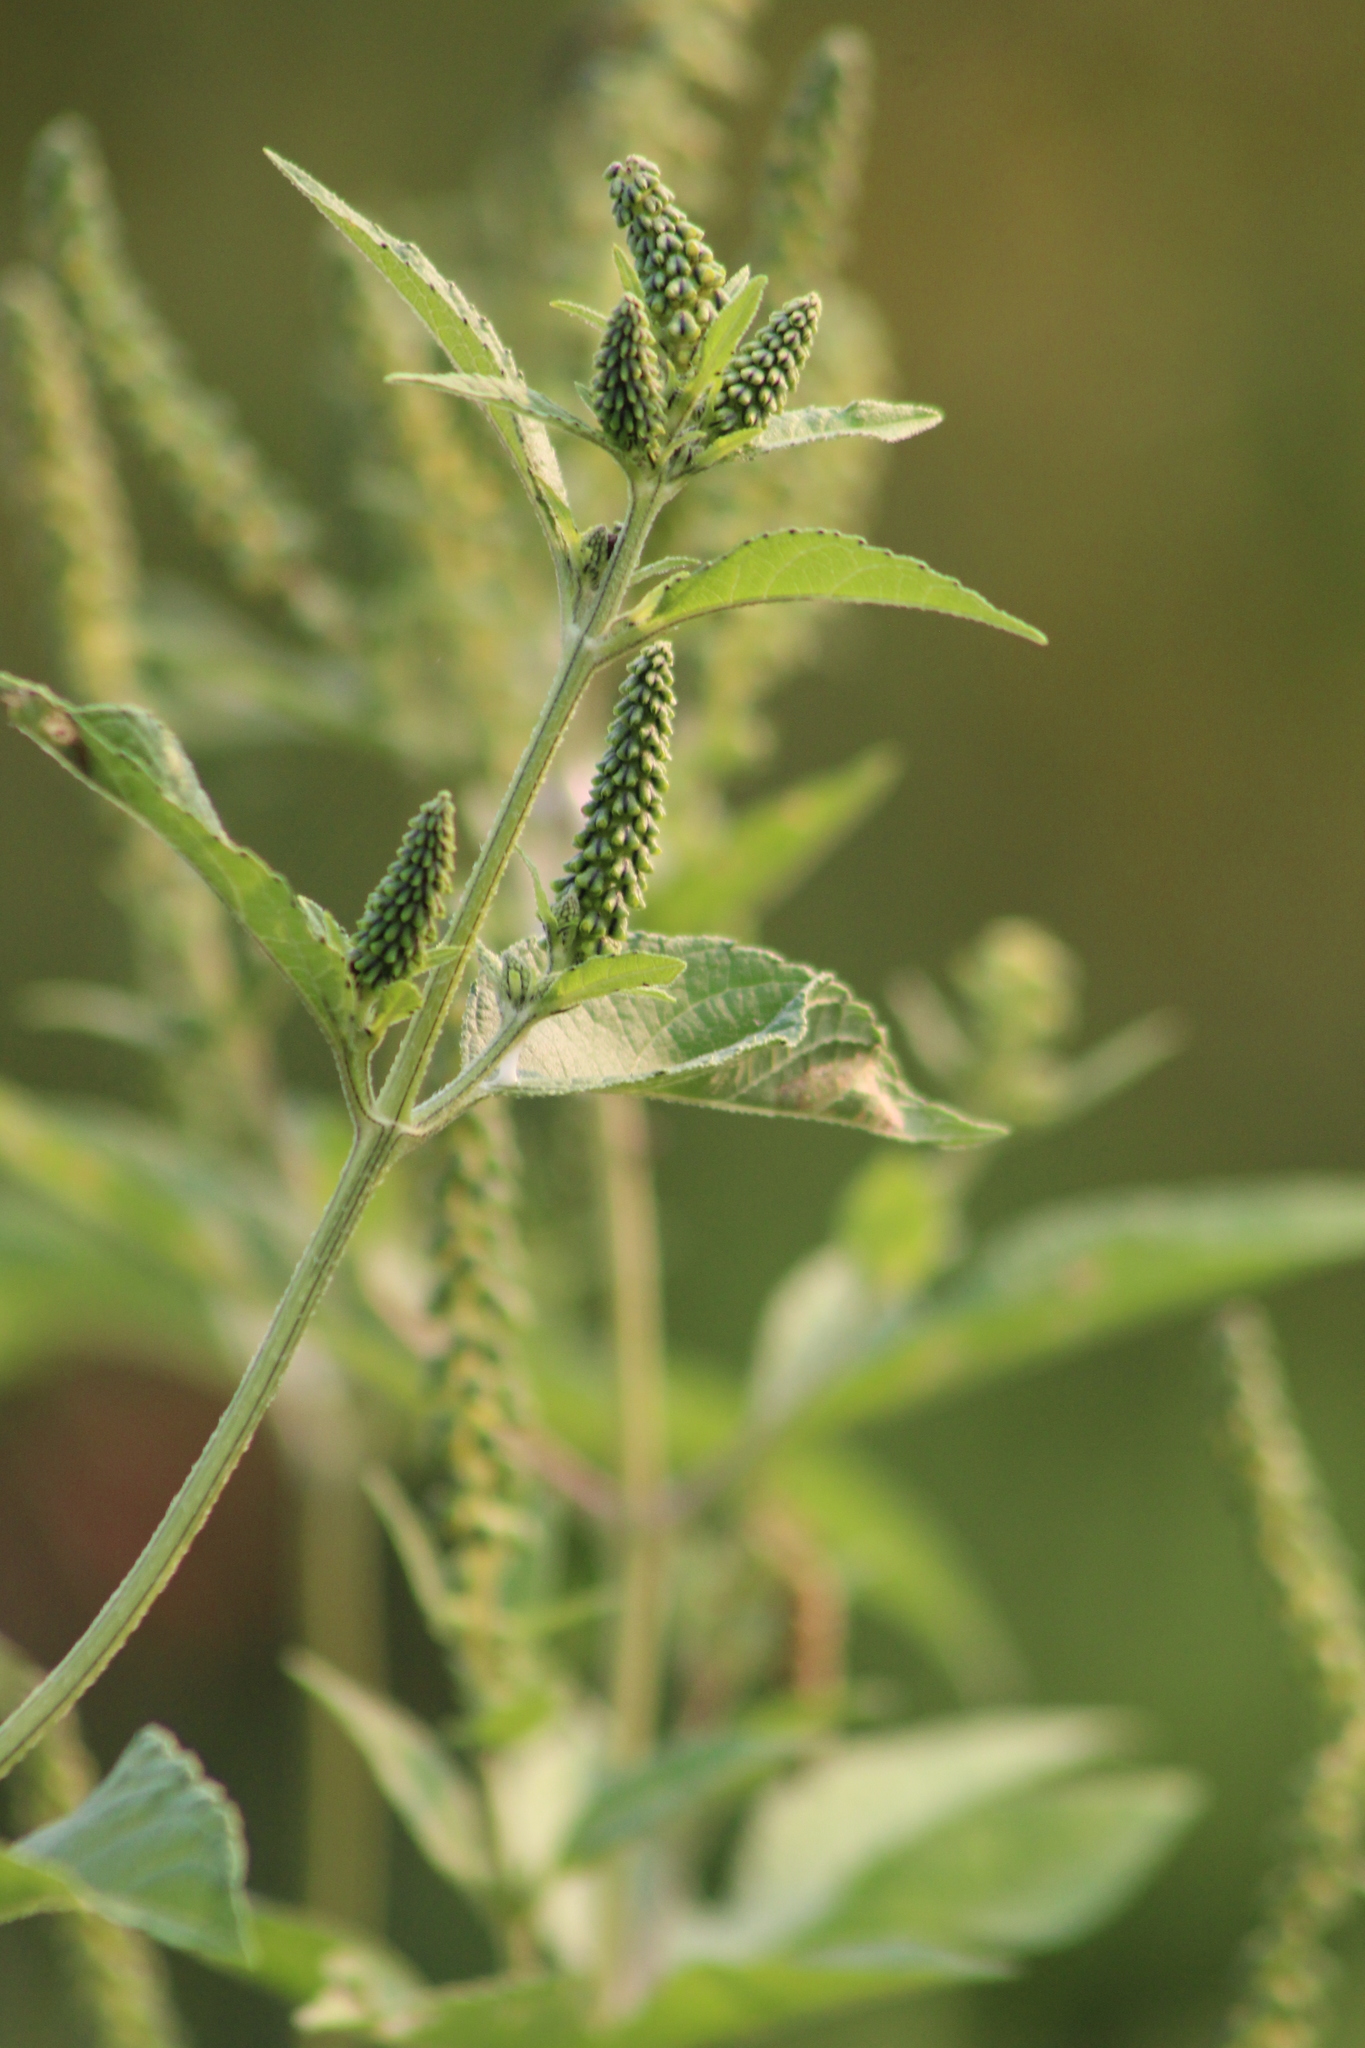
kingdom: Plantae
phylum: Tracheophyta
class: Magnoliopsida
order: Asterales
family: Asteraceae
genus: Ambrosia
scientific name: Ambrosia trifida
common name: Giant ragweed
